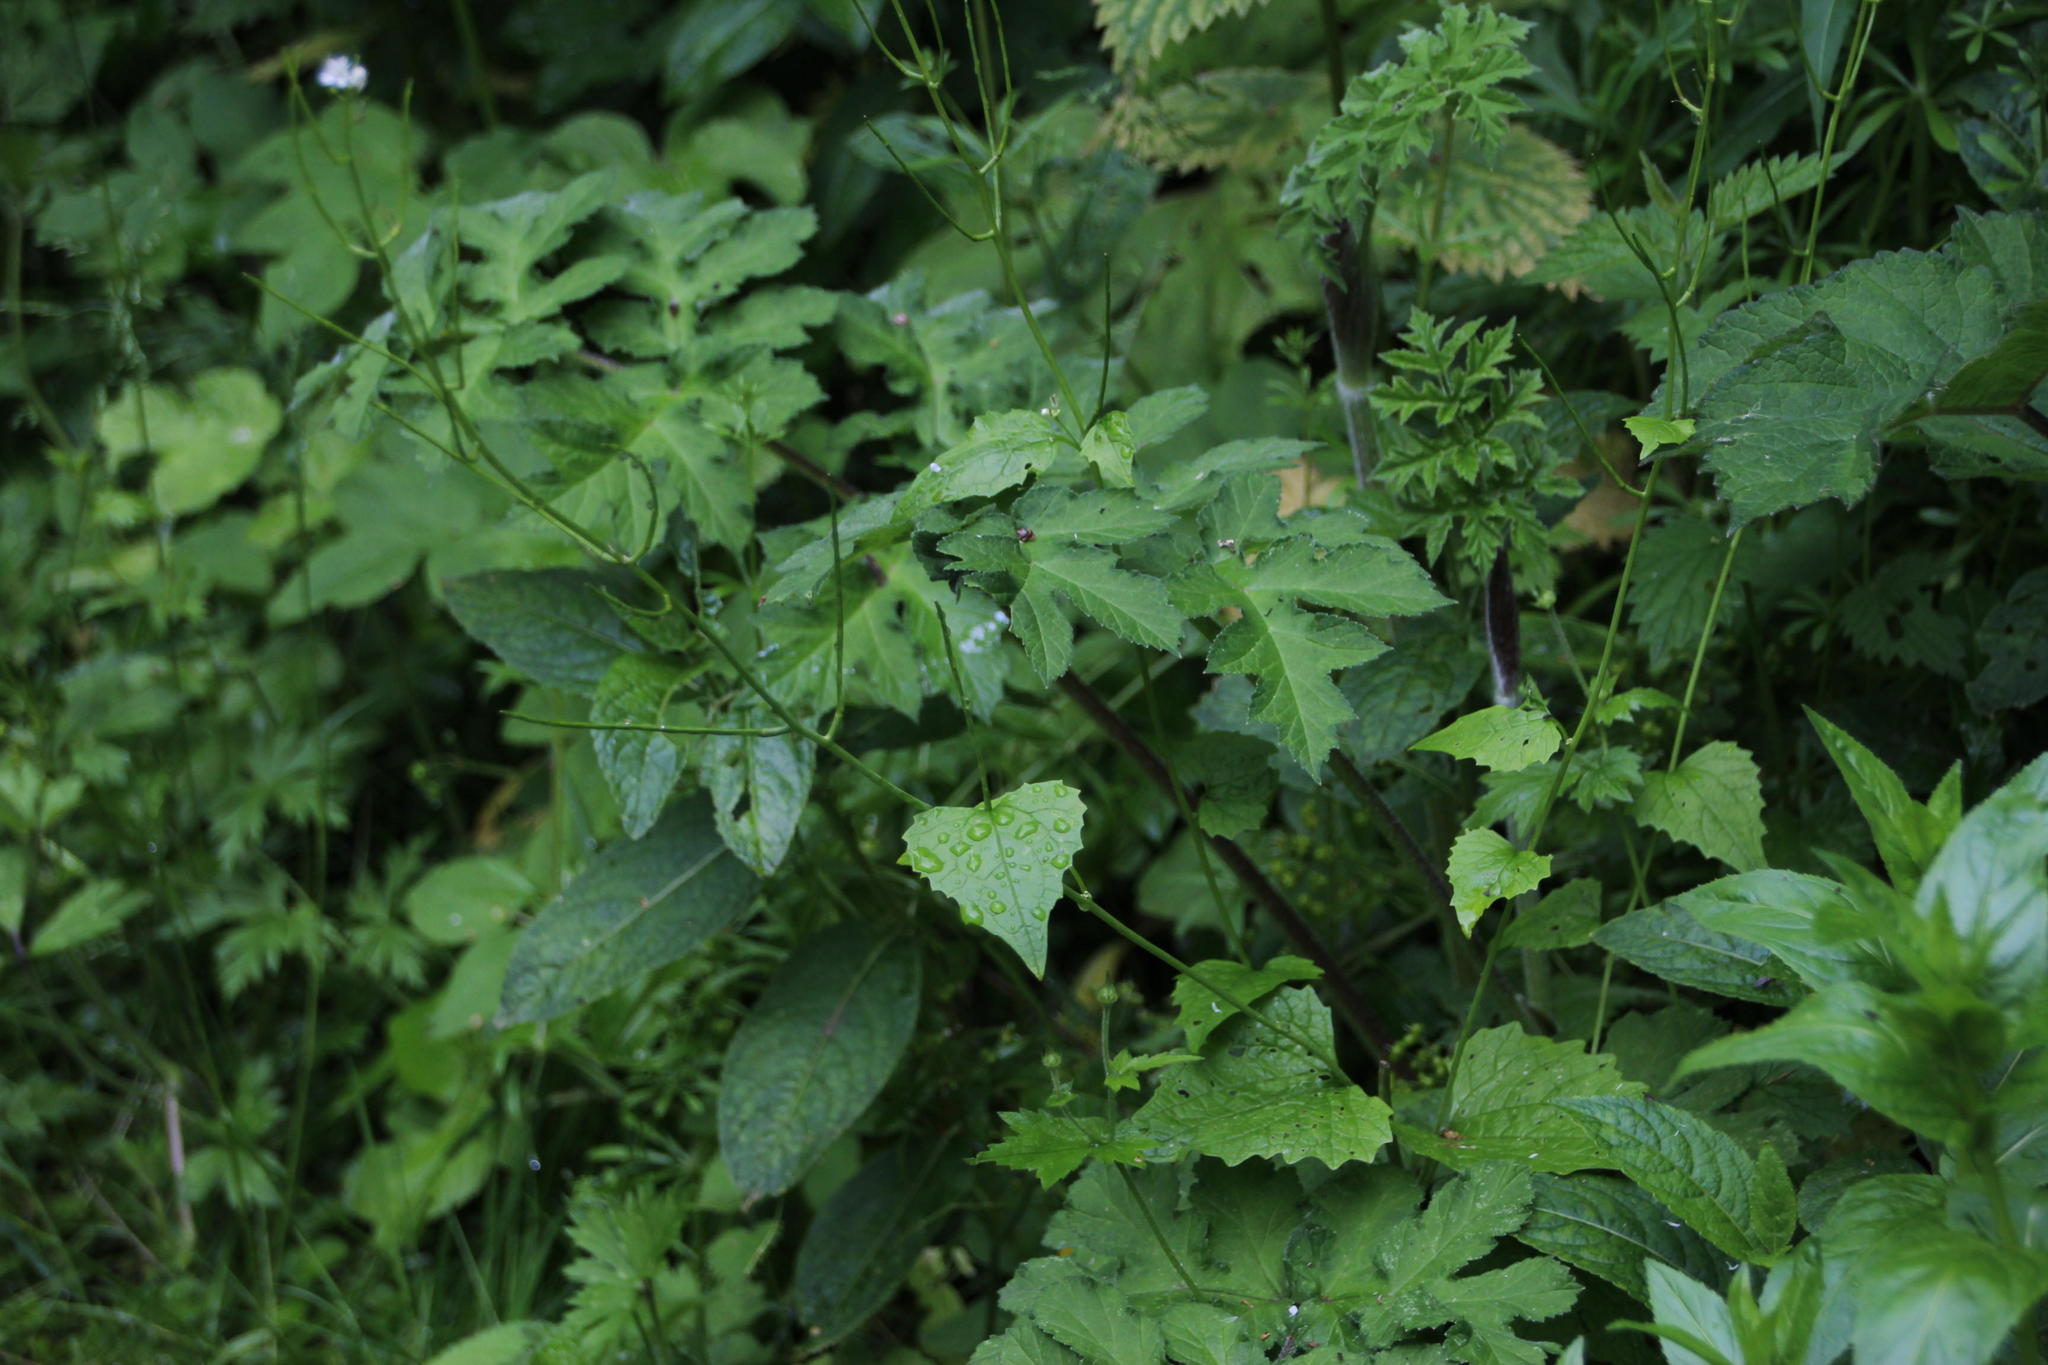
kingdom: Plantae
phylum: Tracheophyta
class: Magnoliopsida
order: Brassicales
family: Brassicaceae
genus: Alliaria
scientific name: Alliaria petiolata
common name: Garlic mustard
